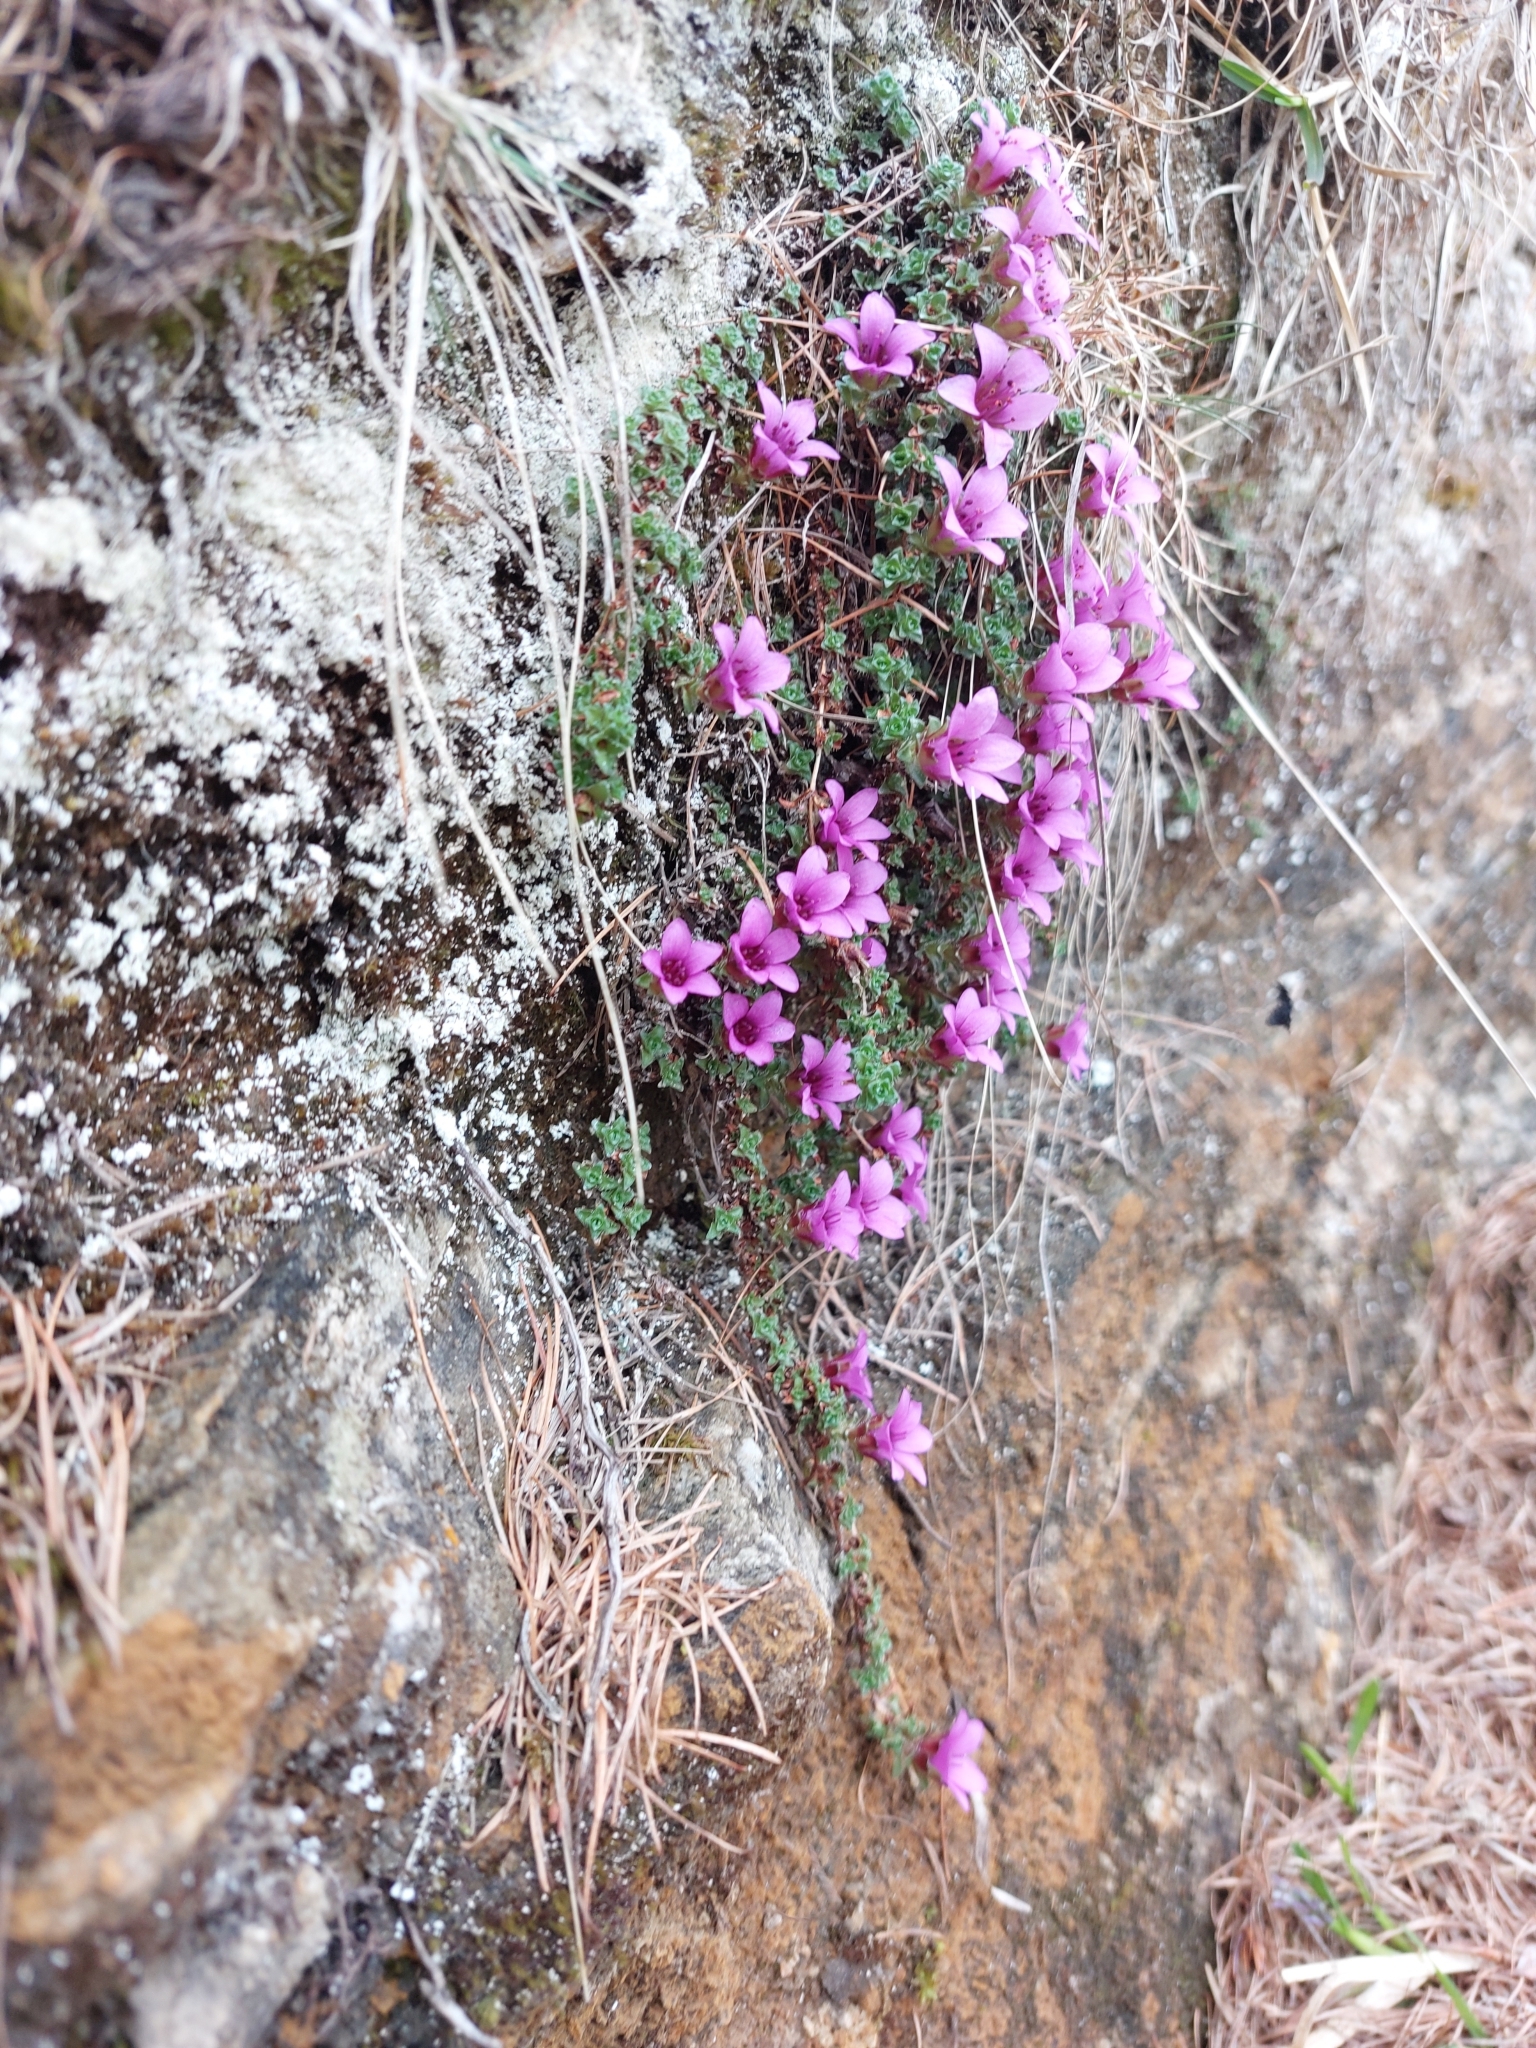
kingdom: Plantae
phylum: Tracheophyta
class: Magnoliopsida
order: Saxifragales
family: Saxifragaceae
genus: Saxifraga
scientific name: Saxifraga oppositifolia
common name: Purple saxifrage
